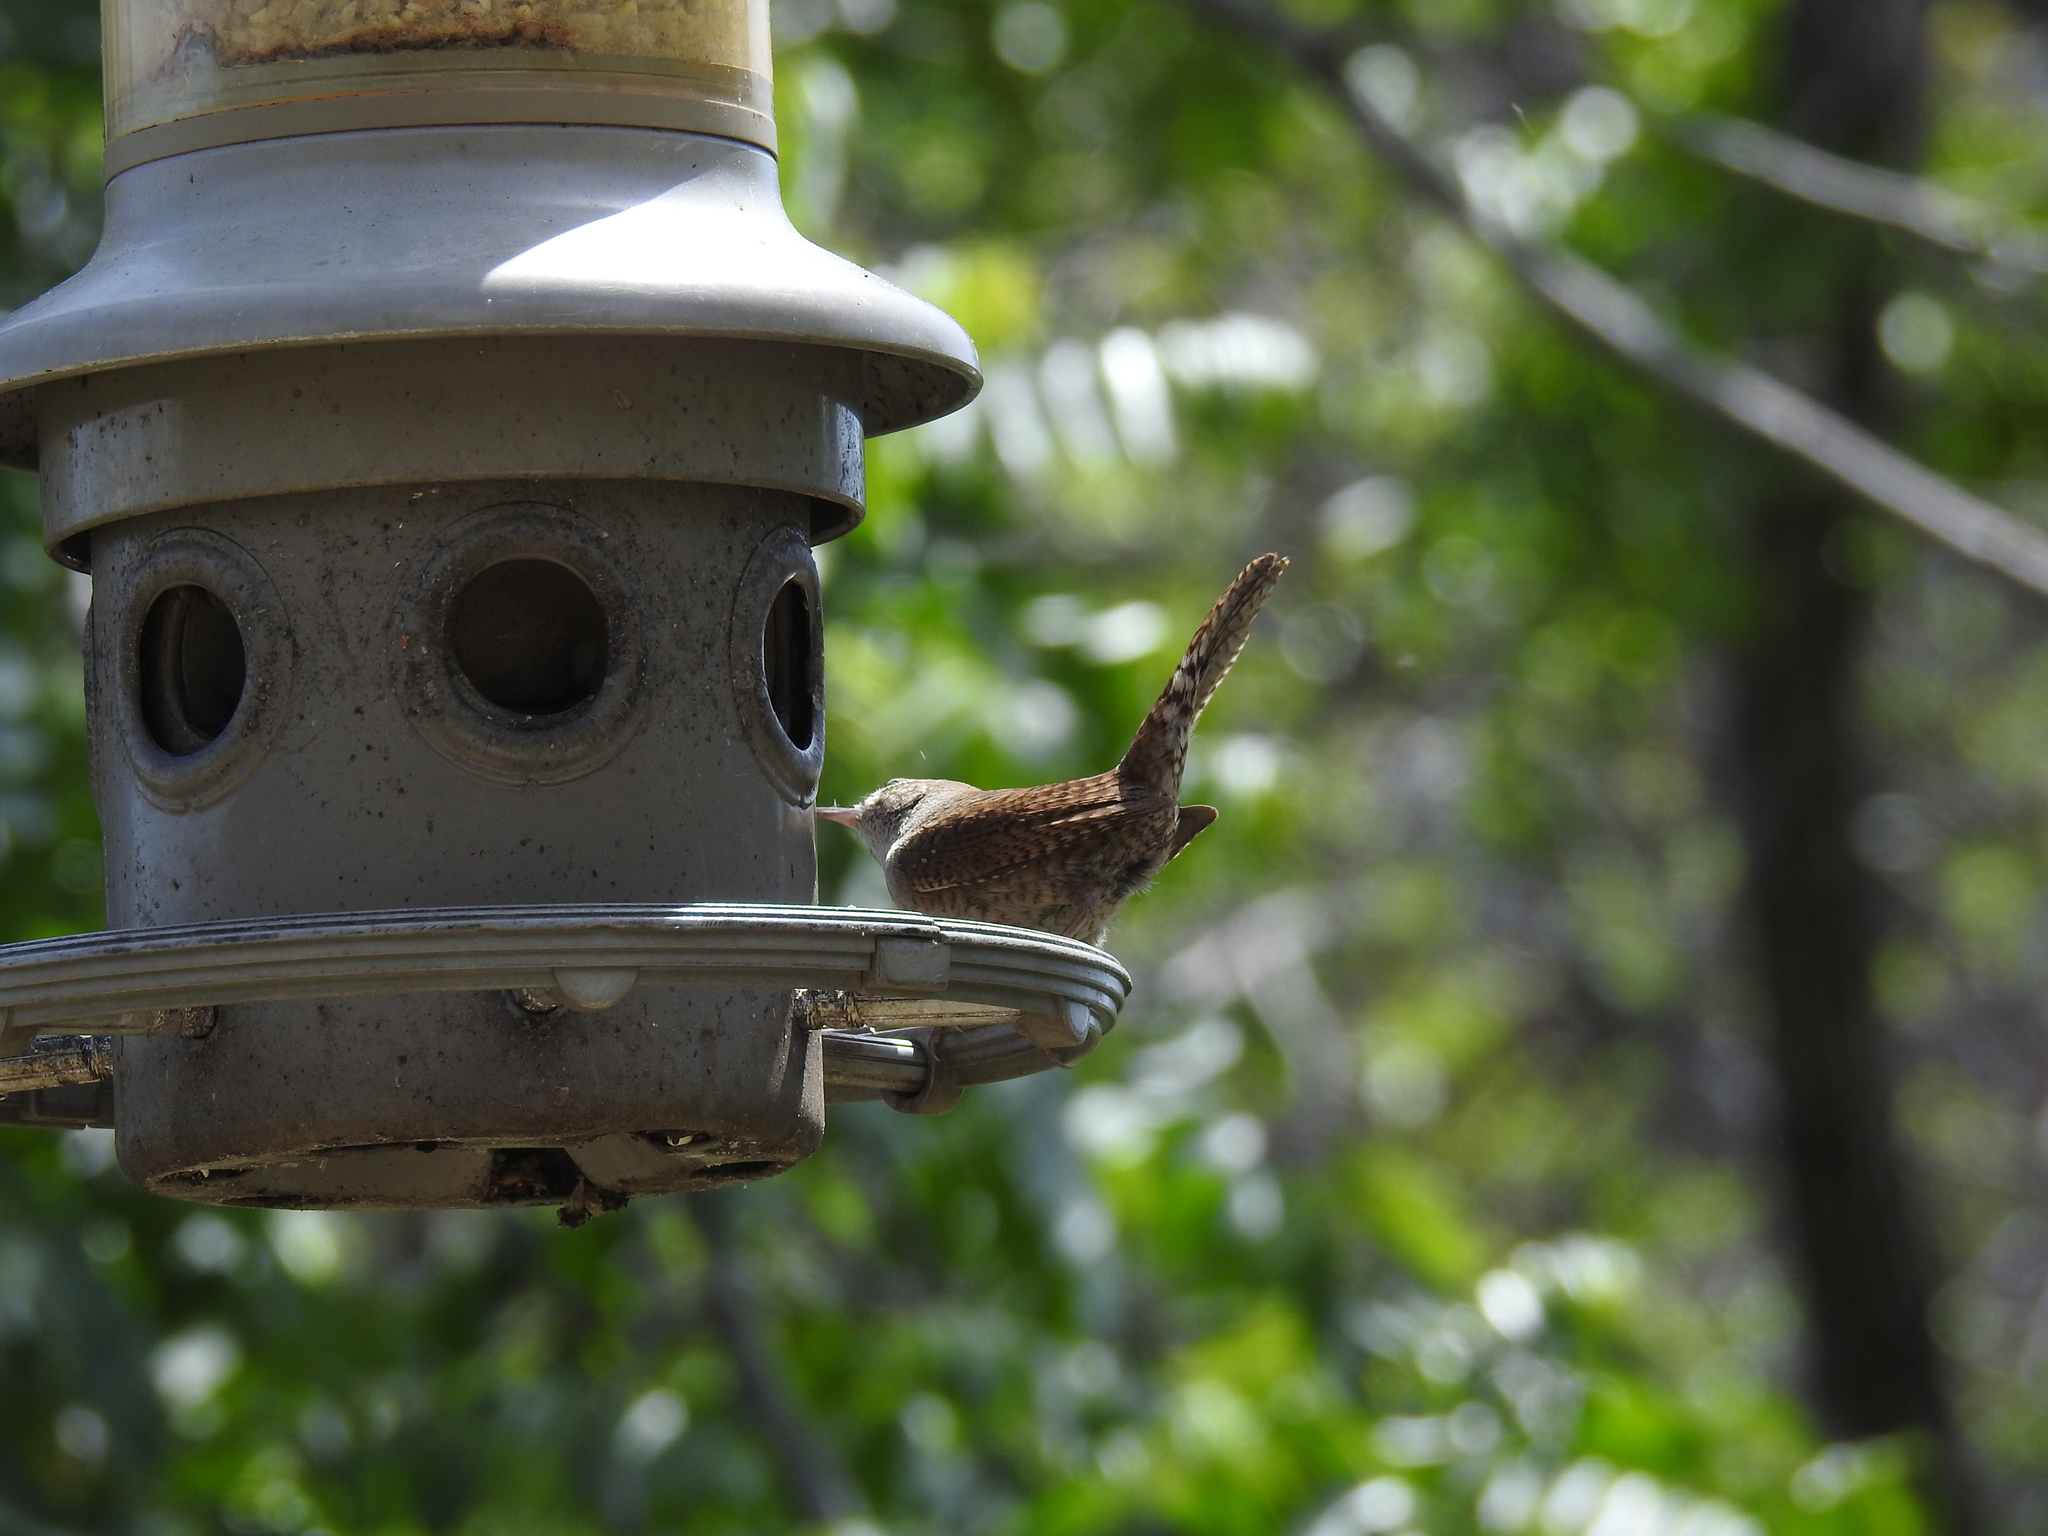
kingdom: Animalia
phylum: Chordata
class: Aves
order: Passeriformes
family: Troglodytidae
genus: Troglodytes
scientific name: Troglodytes aedon
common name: House wren
